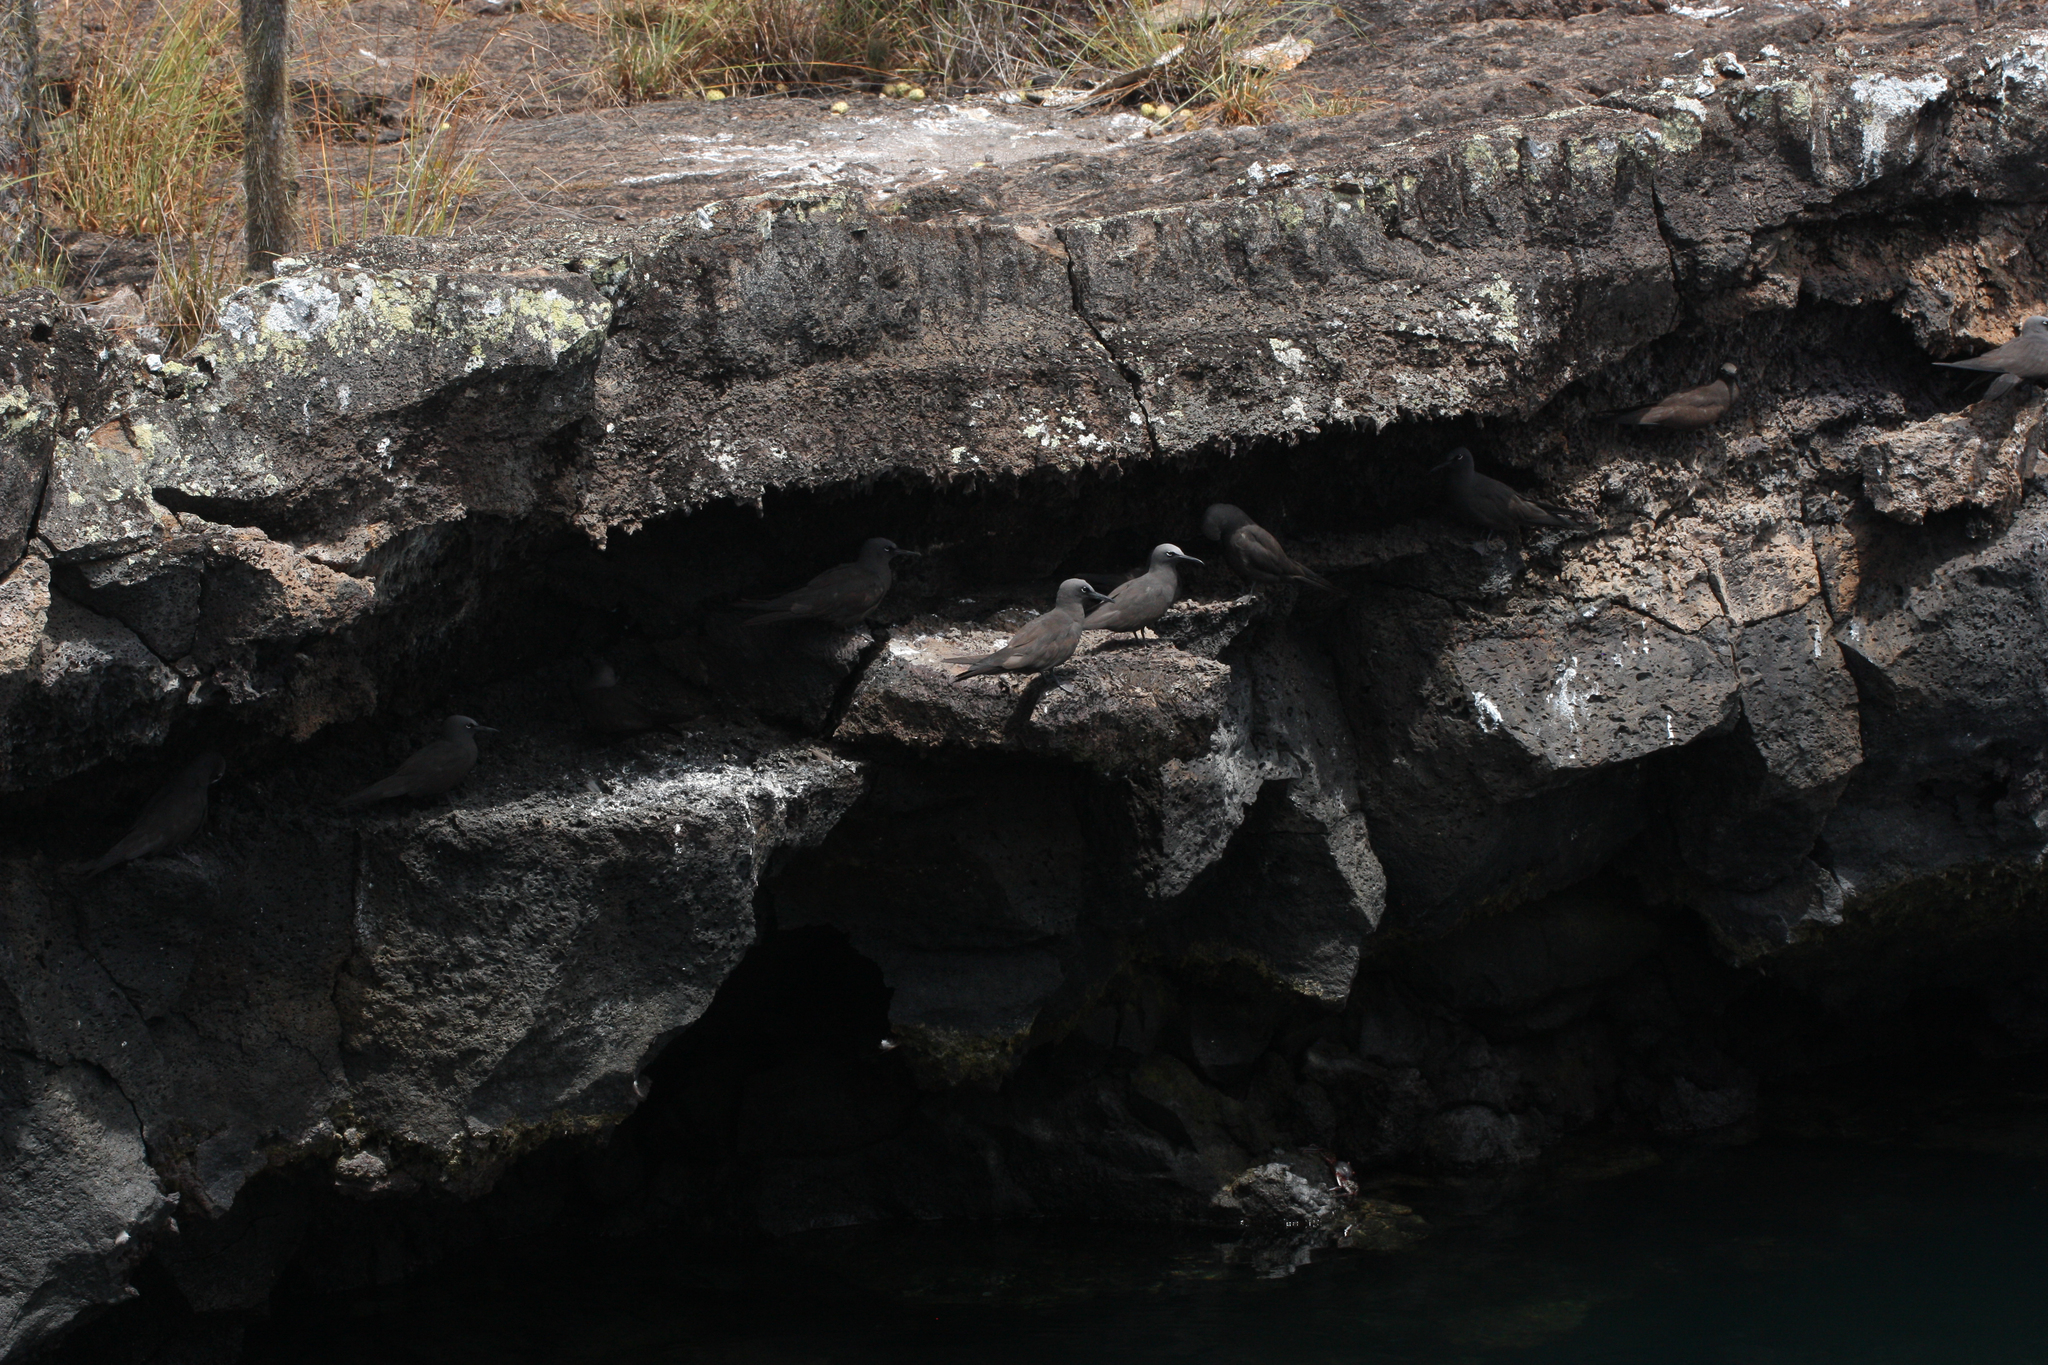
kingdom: Animalia
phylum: Chordata
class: Aves
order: Charadriiformes
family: Laridae
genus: Anous
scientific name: Anous stolidus
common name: Brown noddy
